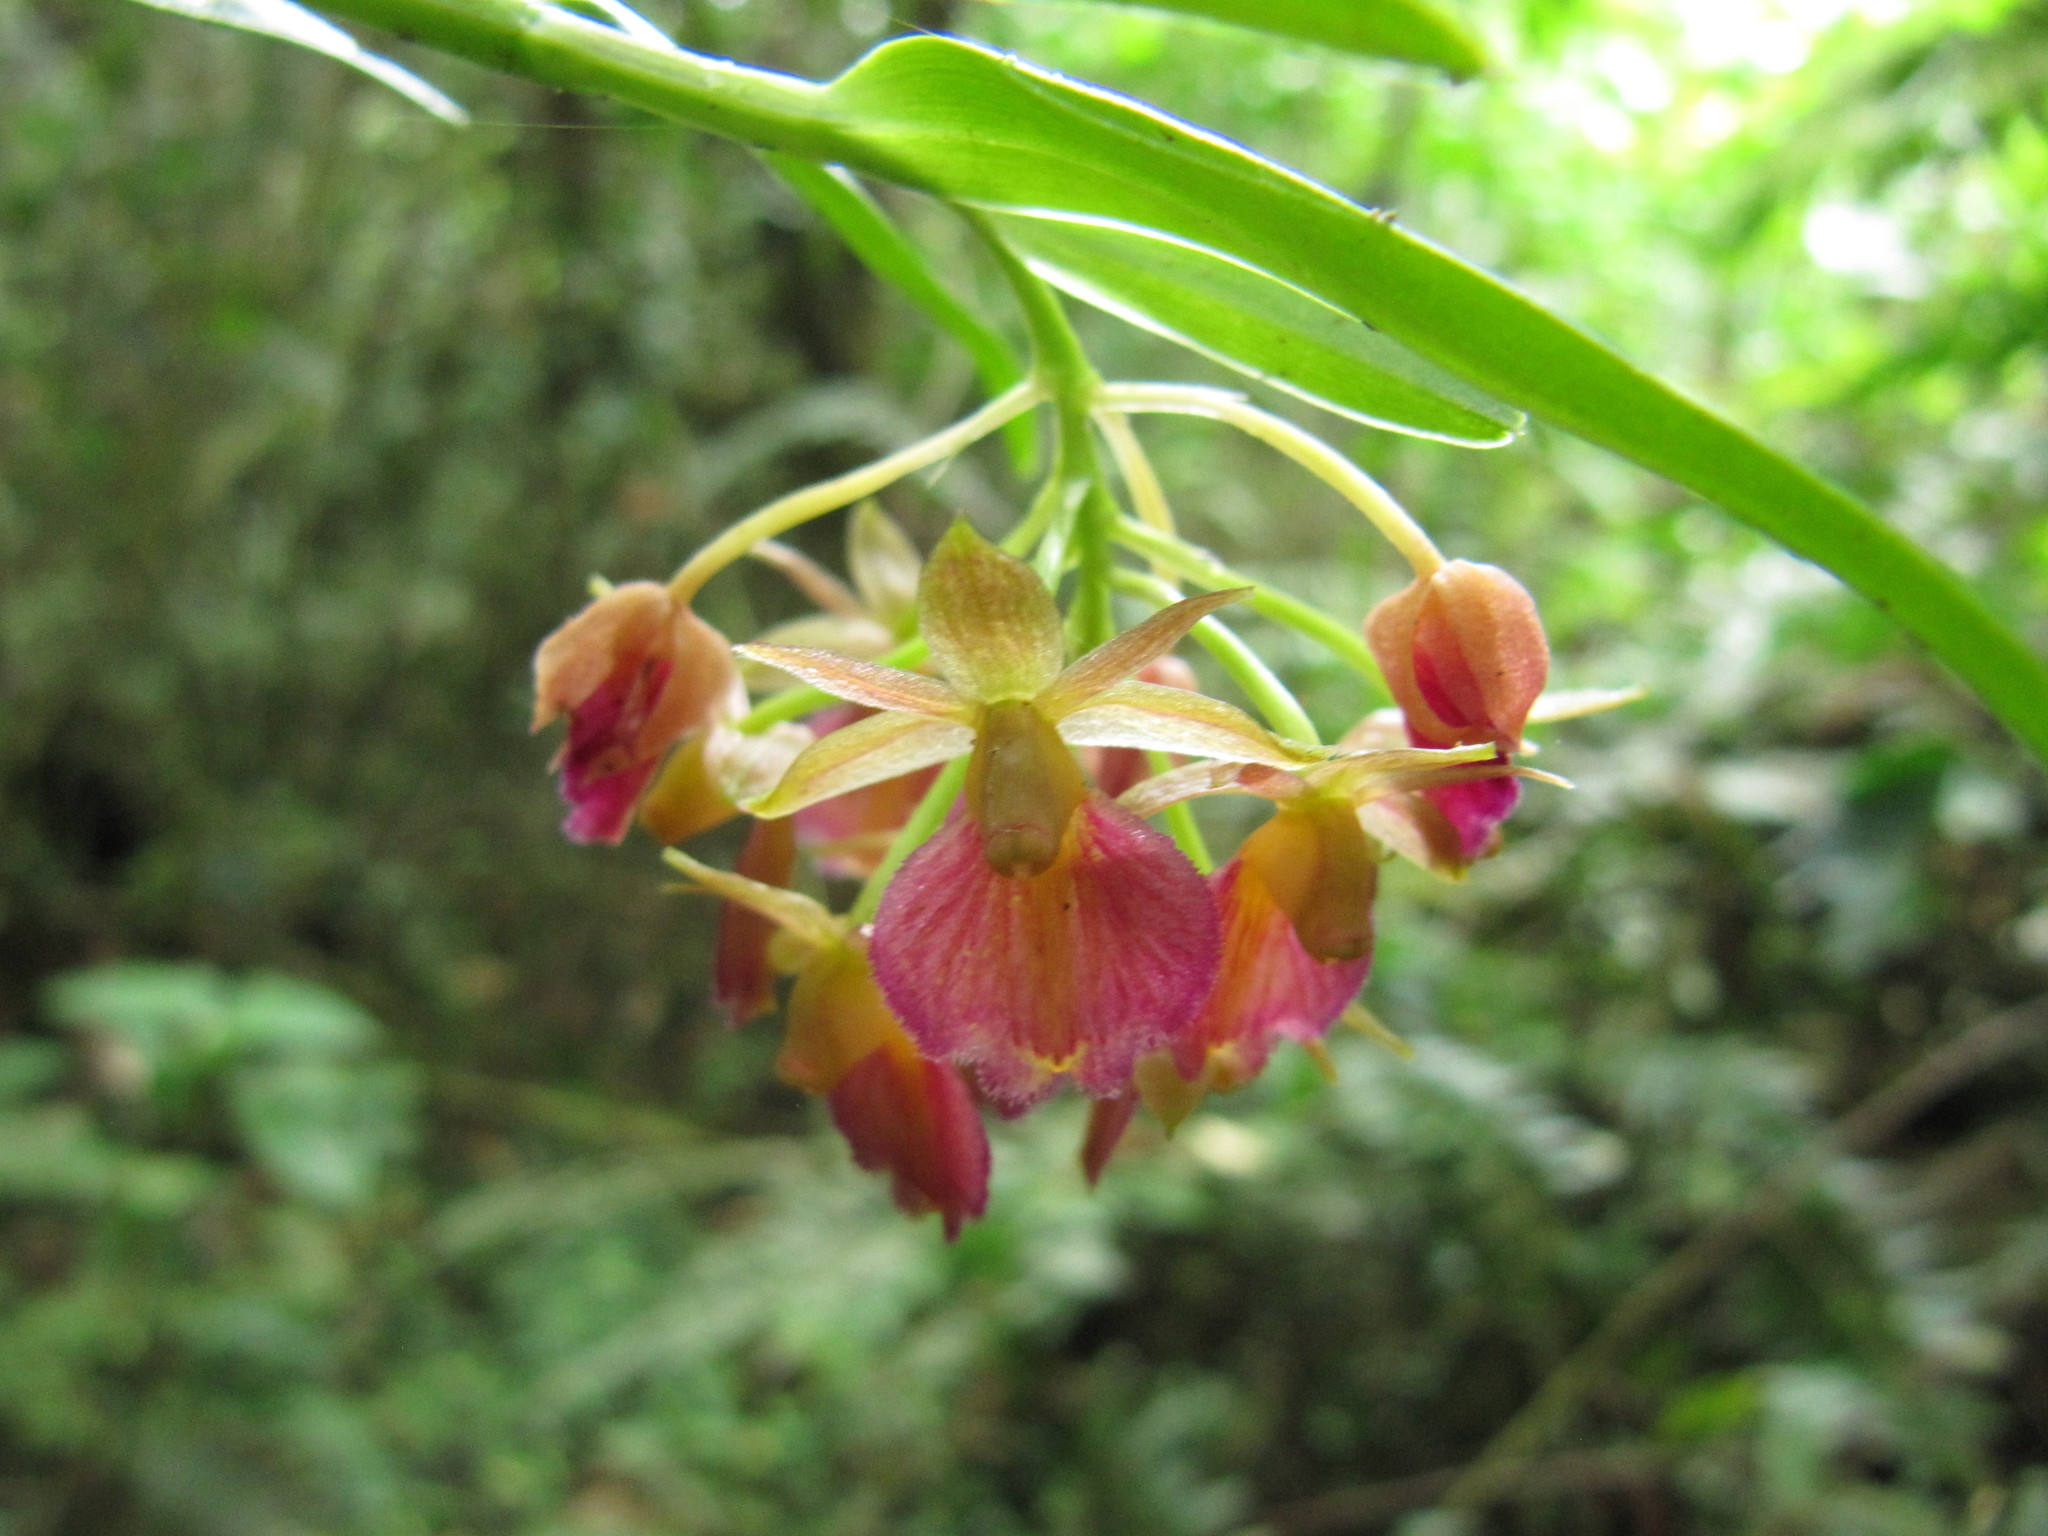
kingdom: Plantae
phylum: Tracheophyta
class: Liliopsida
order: Asparagales
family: Orchidaceae
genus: Epidendrum
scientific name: Epidendrum cottoniiflorum
